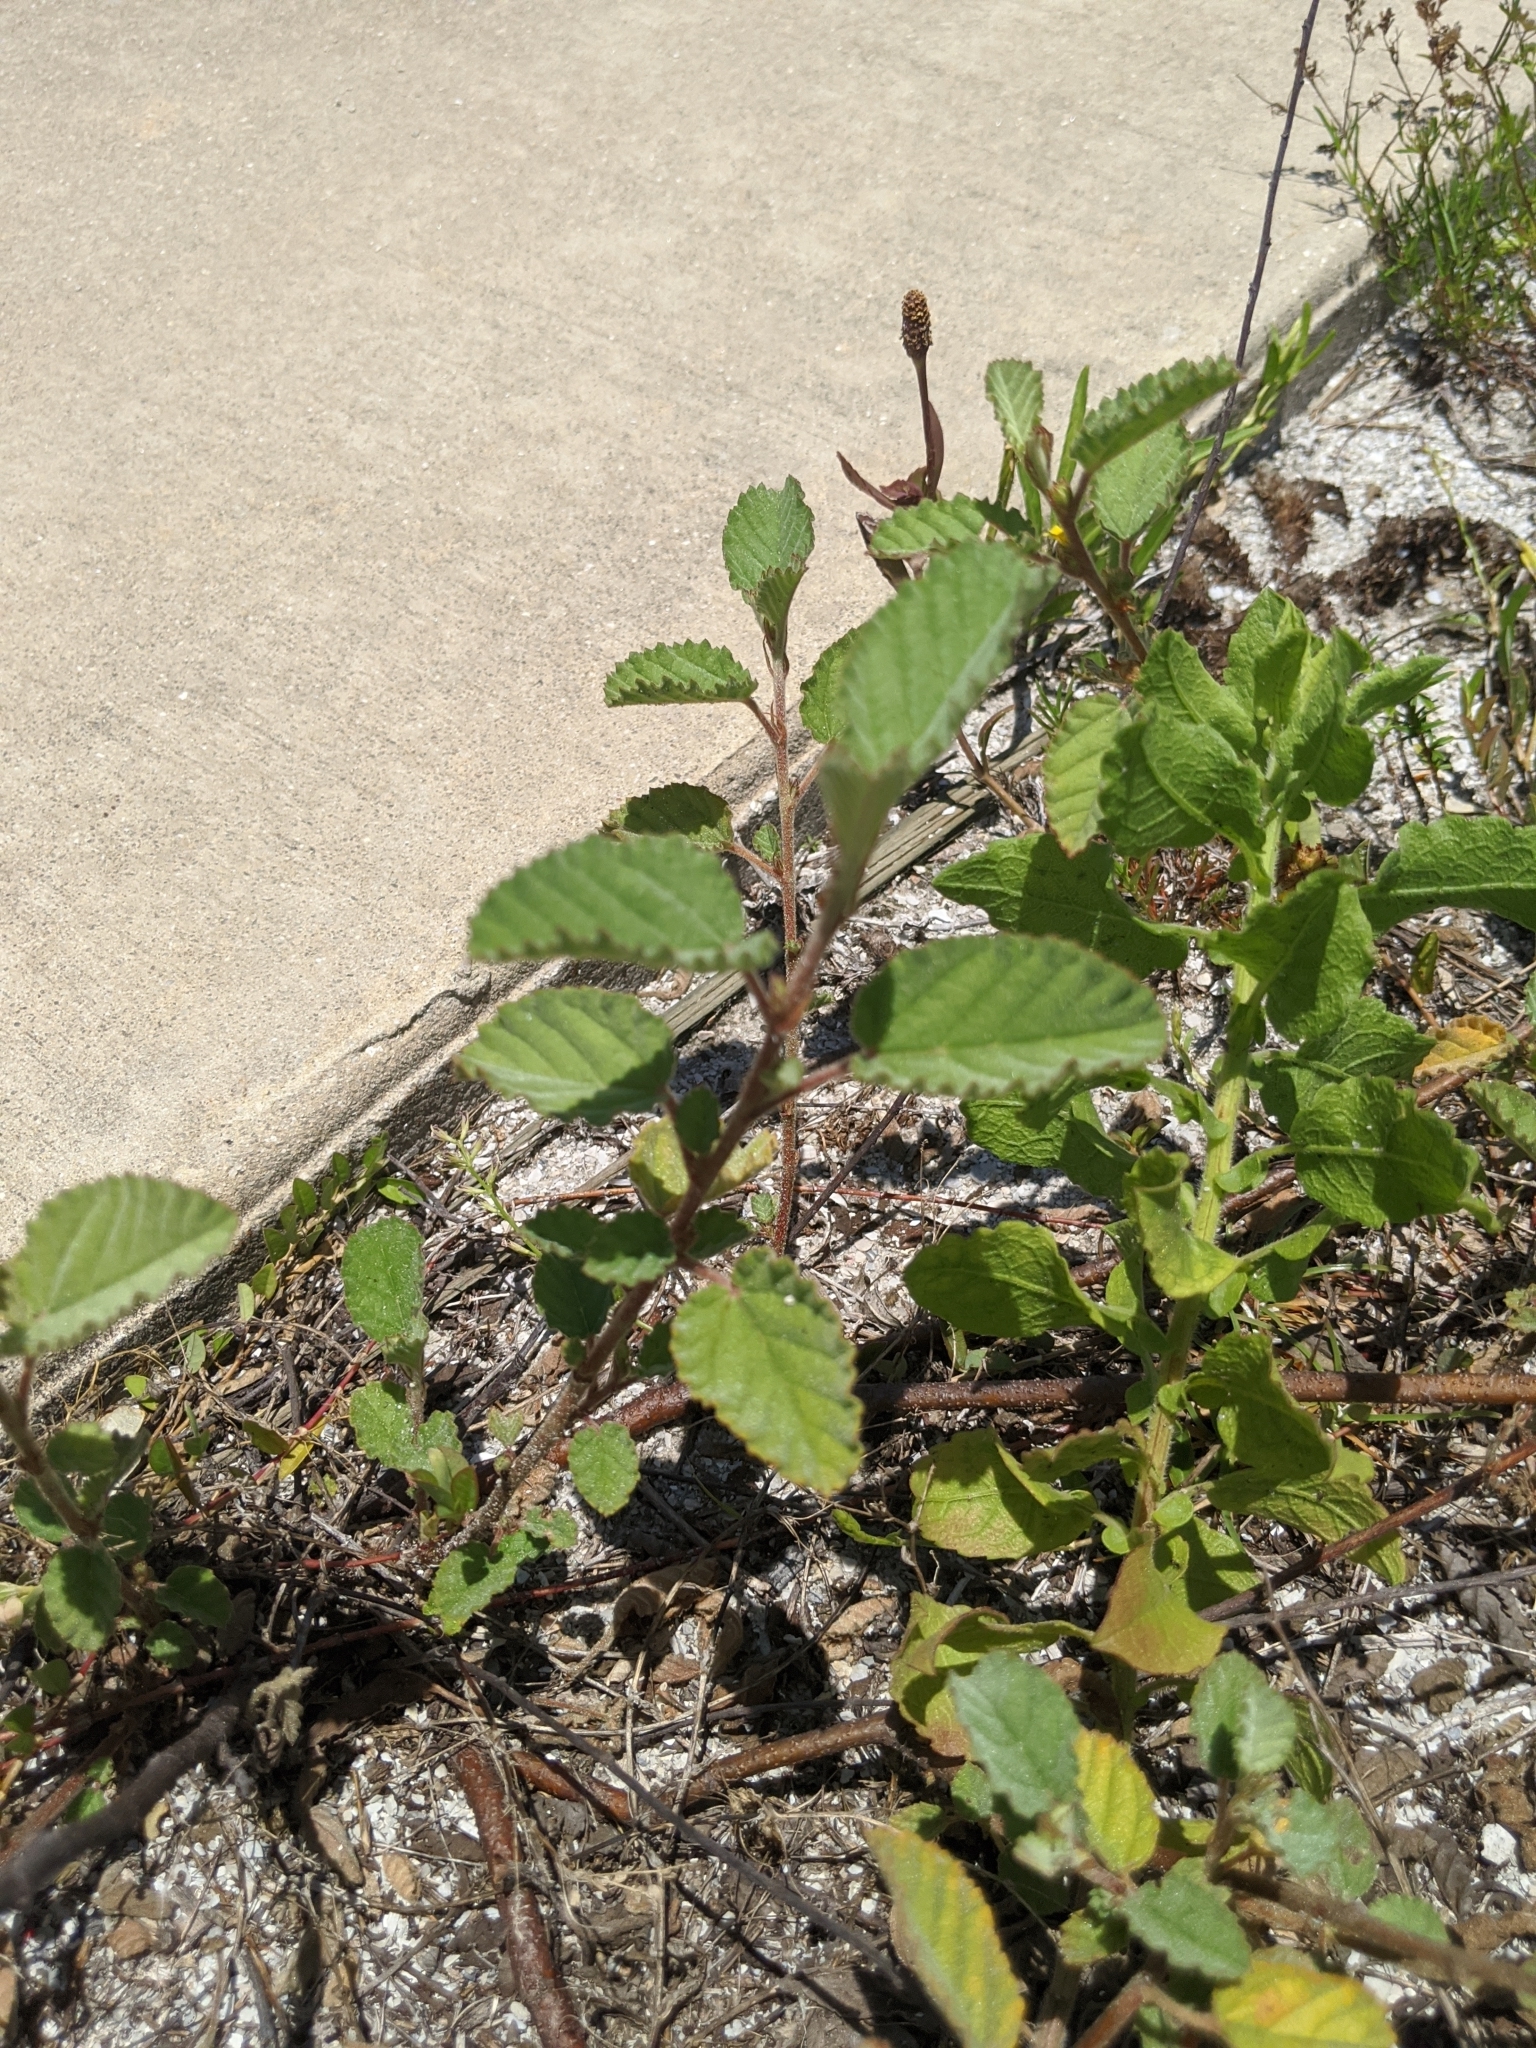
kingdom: Plantae
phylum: Tracheophyta
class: Magnoliopsida
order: Malvales
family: Malvaceae
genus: Waltheria
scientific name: Waltheria indica
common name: Leather-coat
